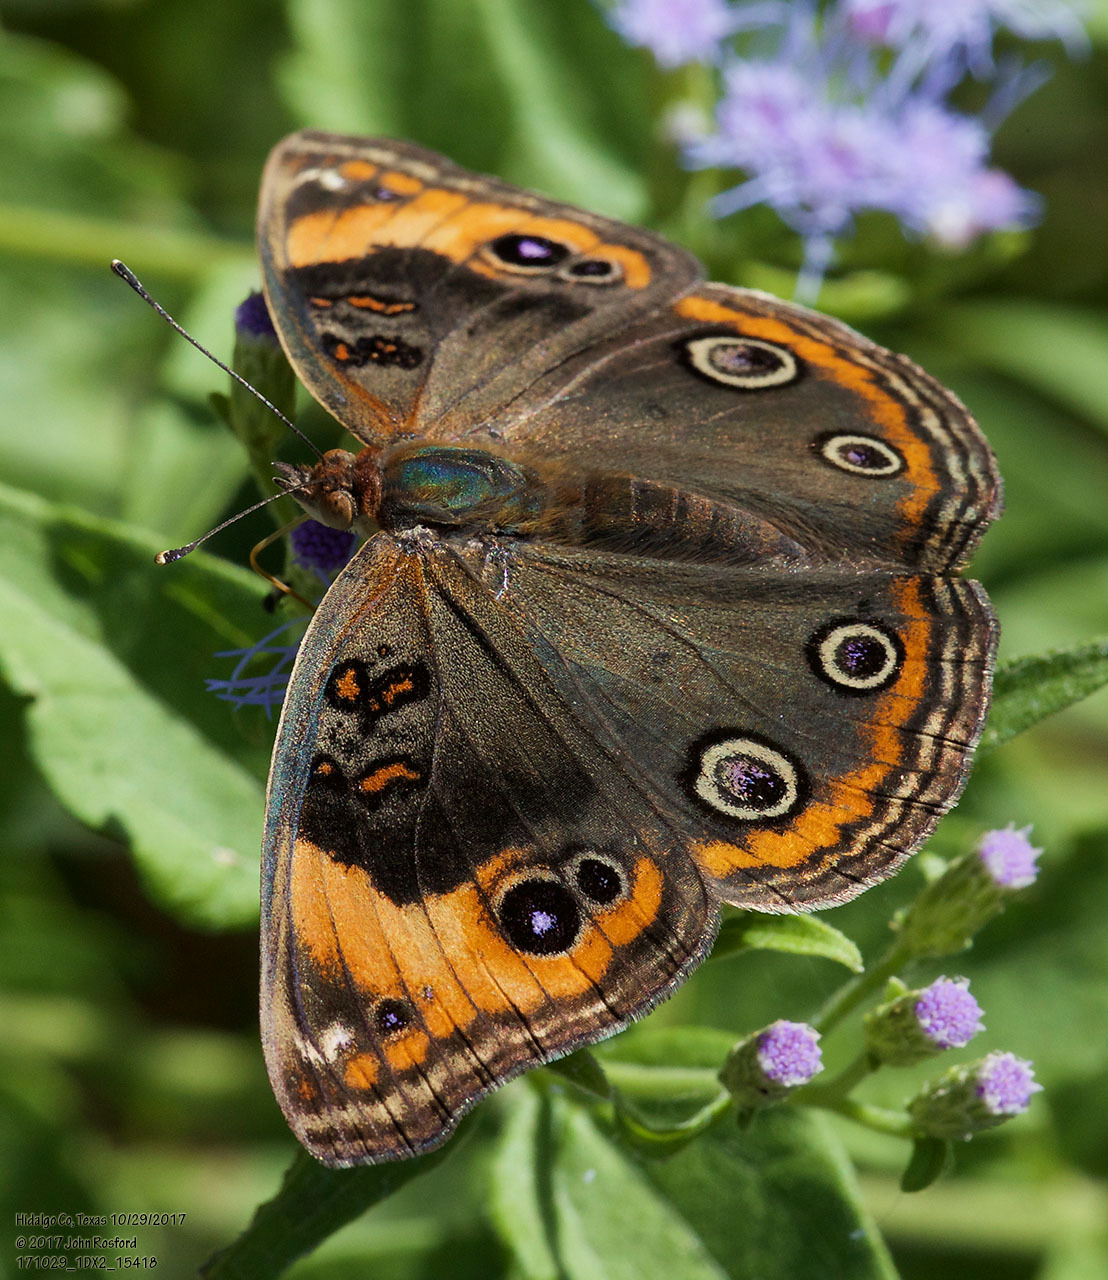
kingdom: Animalia
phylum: Arthropoda
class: Insecta
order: Lepidoptera
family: Nymphalidae
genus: Junonia
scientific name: Junonia stemosa
